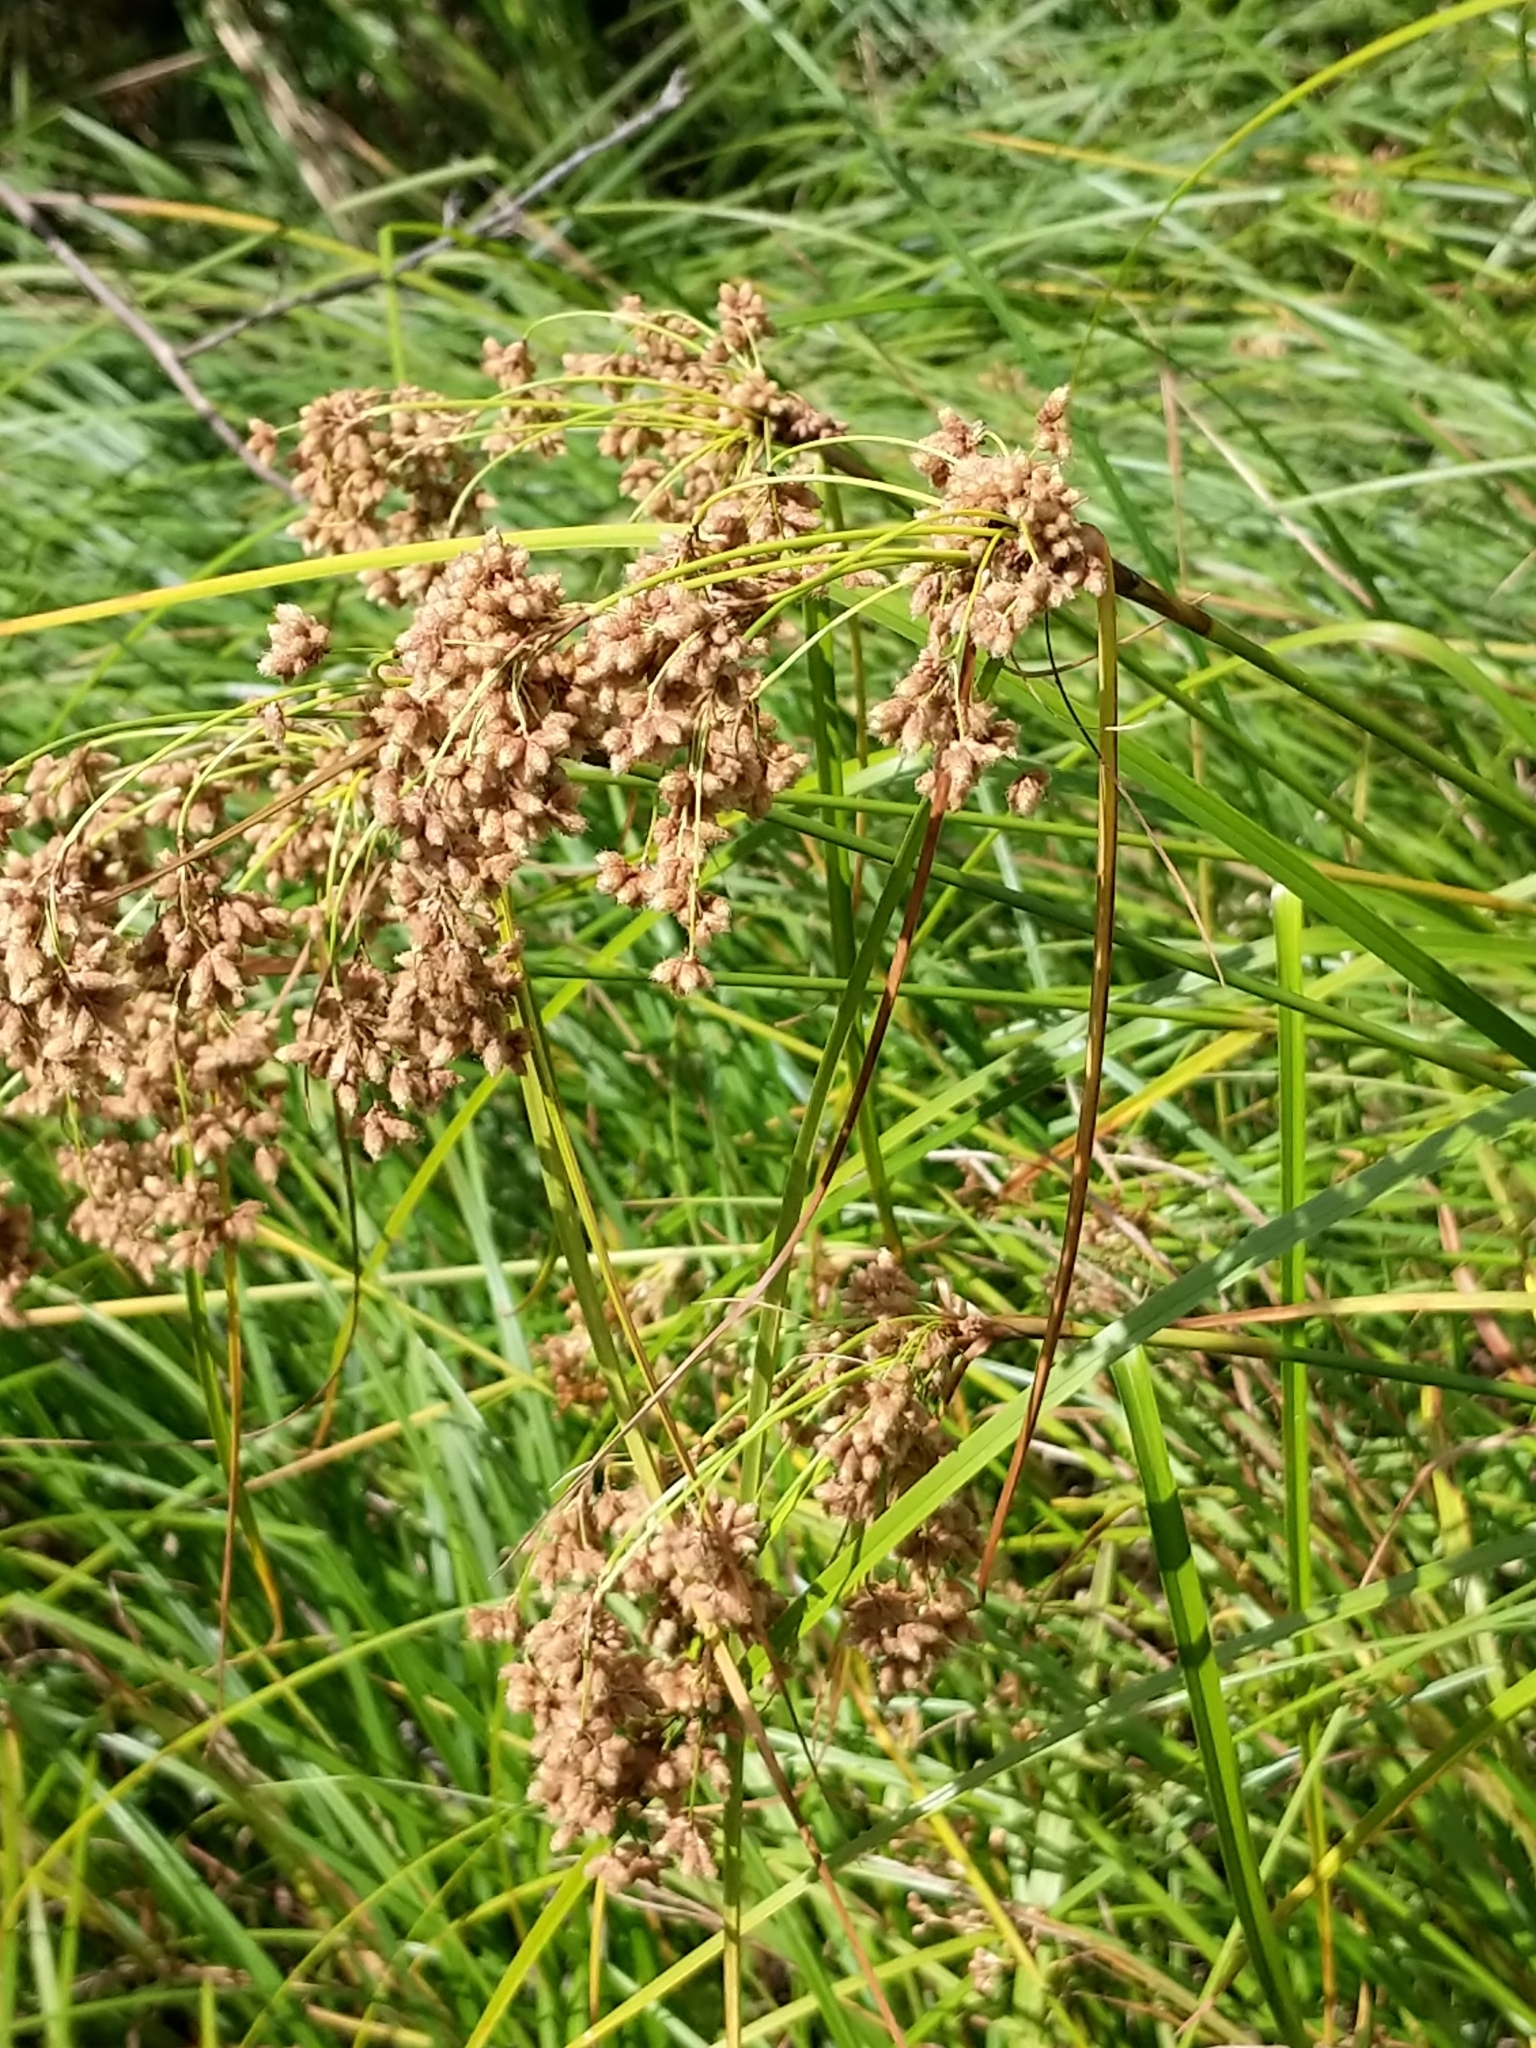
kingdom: Plantae
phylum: Tracheophyta
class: Liliopsida
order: Poales
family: Cyperaceae
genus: Scirpus
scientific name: Scirpus cyperinus
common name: Black-sheathed bulrush
